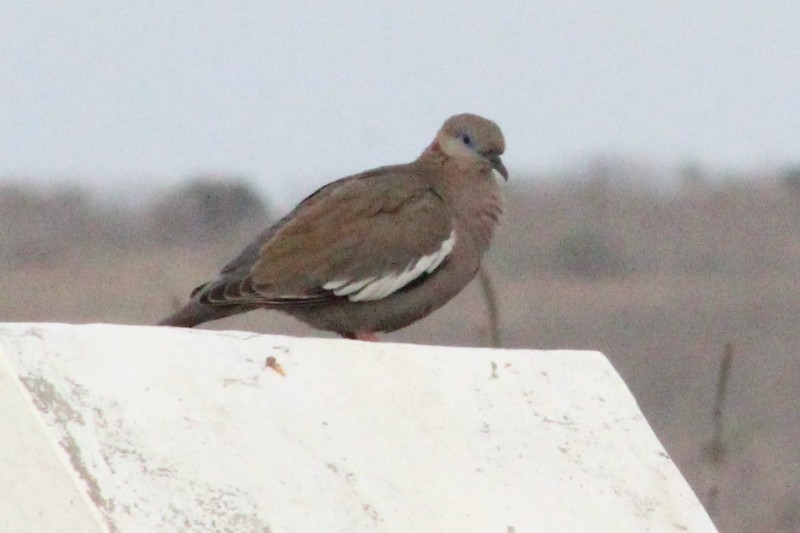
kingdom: Animalia
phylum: Chordata
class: Aves
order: Columbiformes
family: Columbidae
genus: Zenaida
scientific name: Zenaida meloda
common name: West peruvian dove
